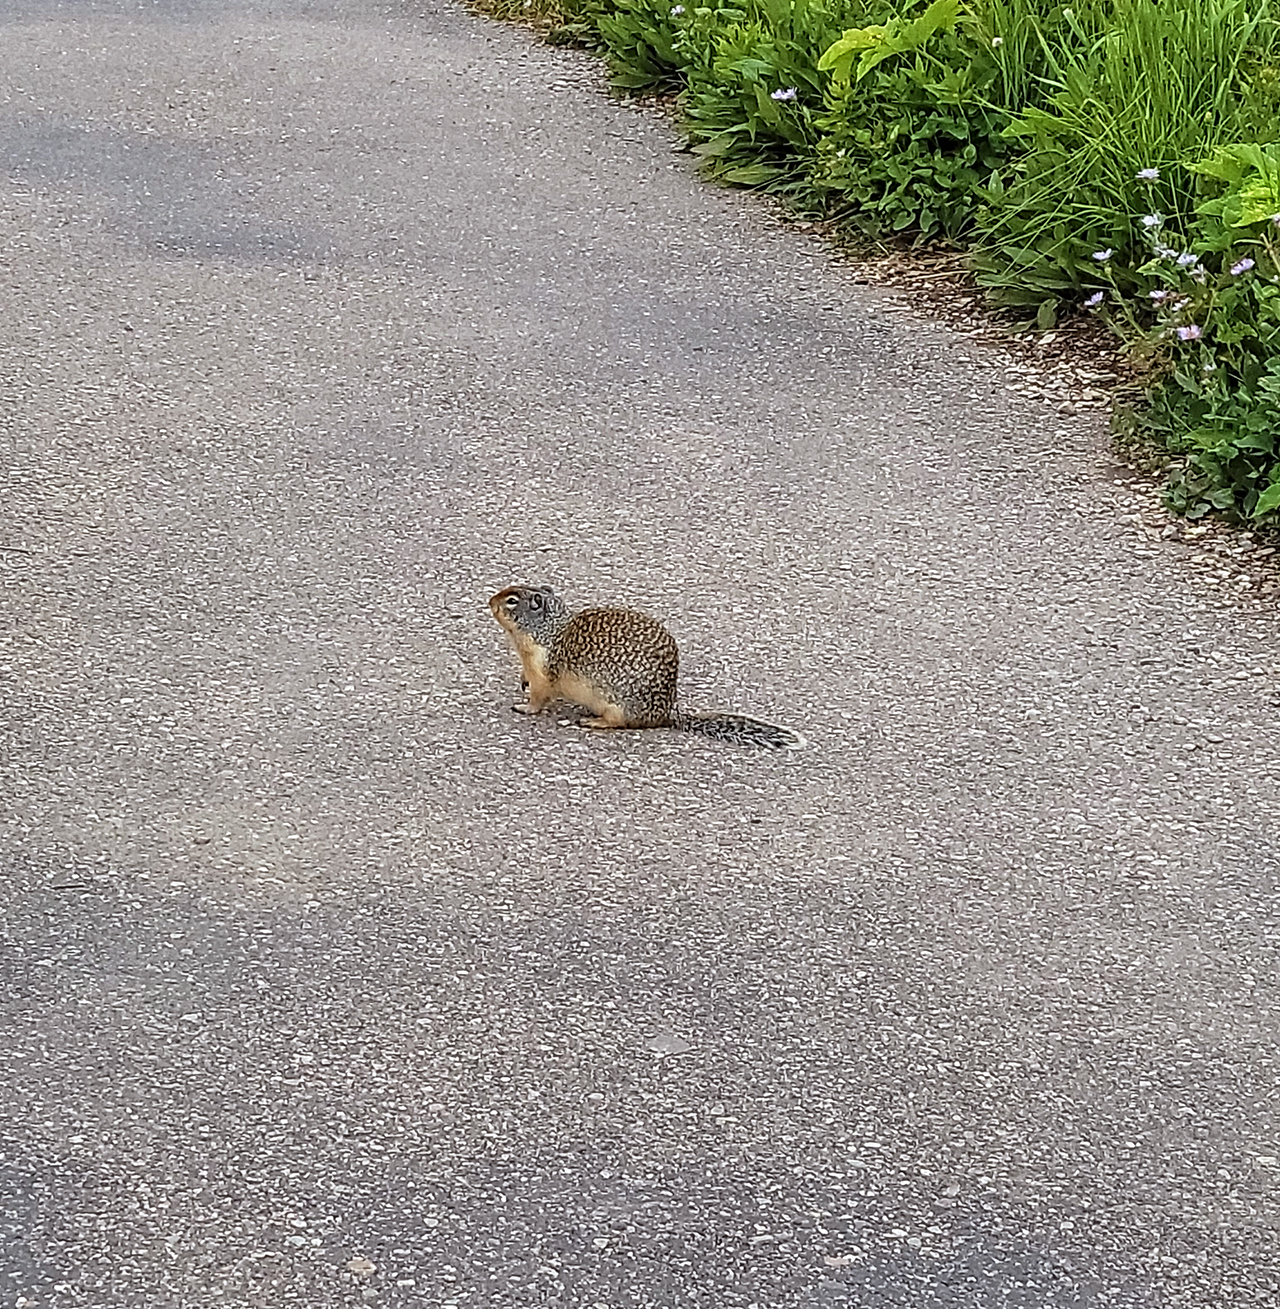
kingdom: Animalia
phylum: Chordata
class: Mammalia
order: Rodentia
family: Sciuridae
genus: Urocitellus
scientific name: Urocitellus columbianus
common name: Columbian ground squirrel
